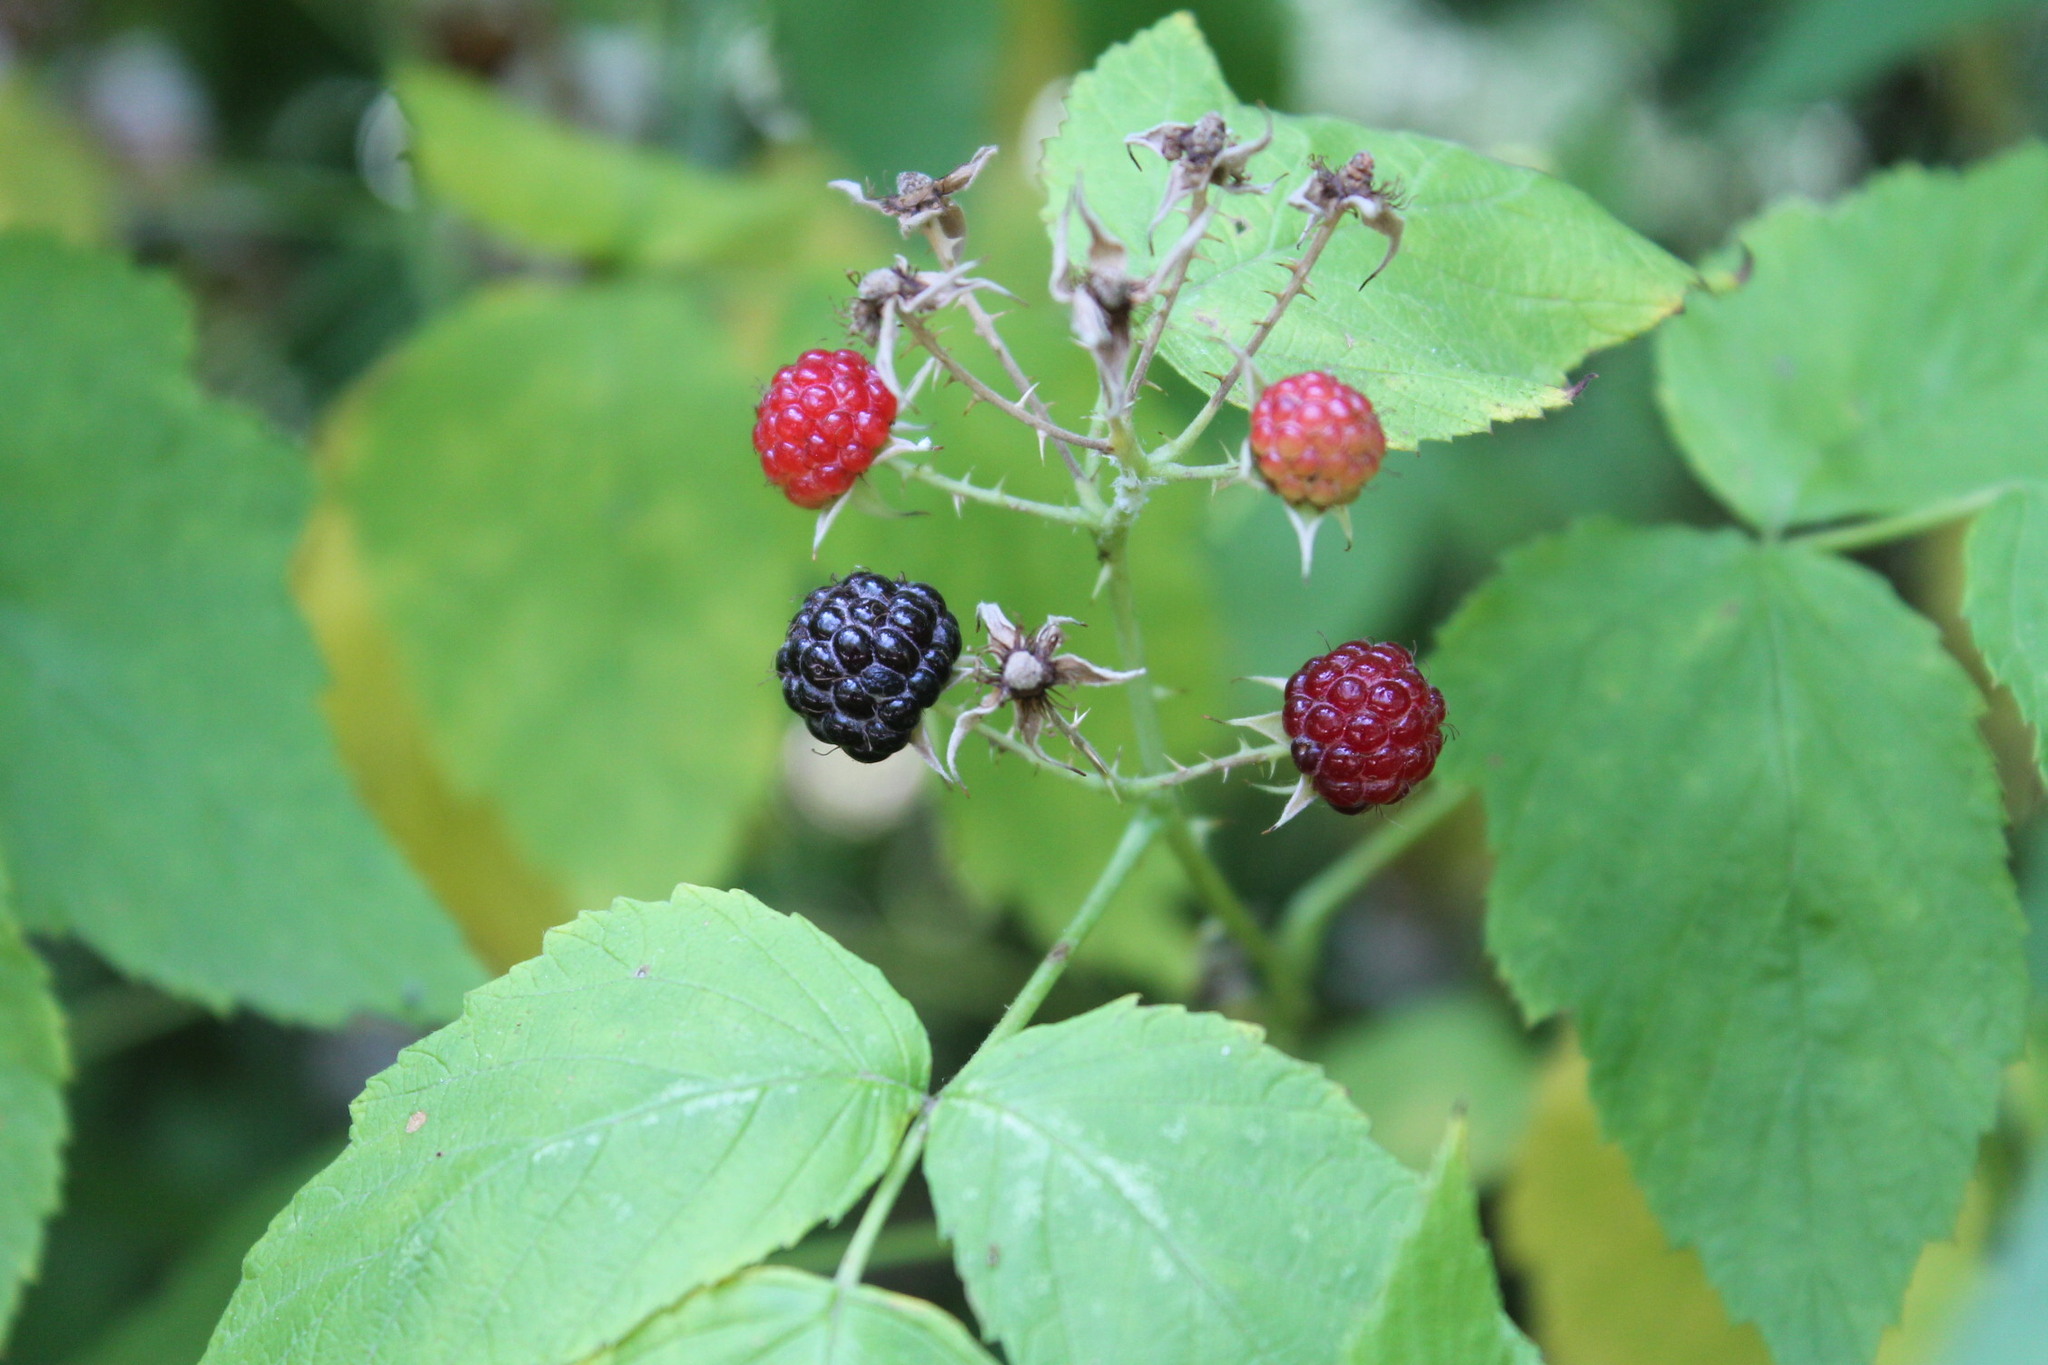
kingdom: Plantae
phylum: Tracheophyta
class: Magnoliopsida
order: Rosales
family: Rosaceae
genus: Rubus
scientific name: Rubus occidentalis
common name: Black raspberry
